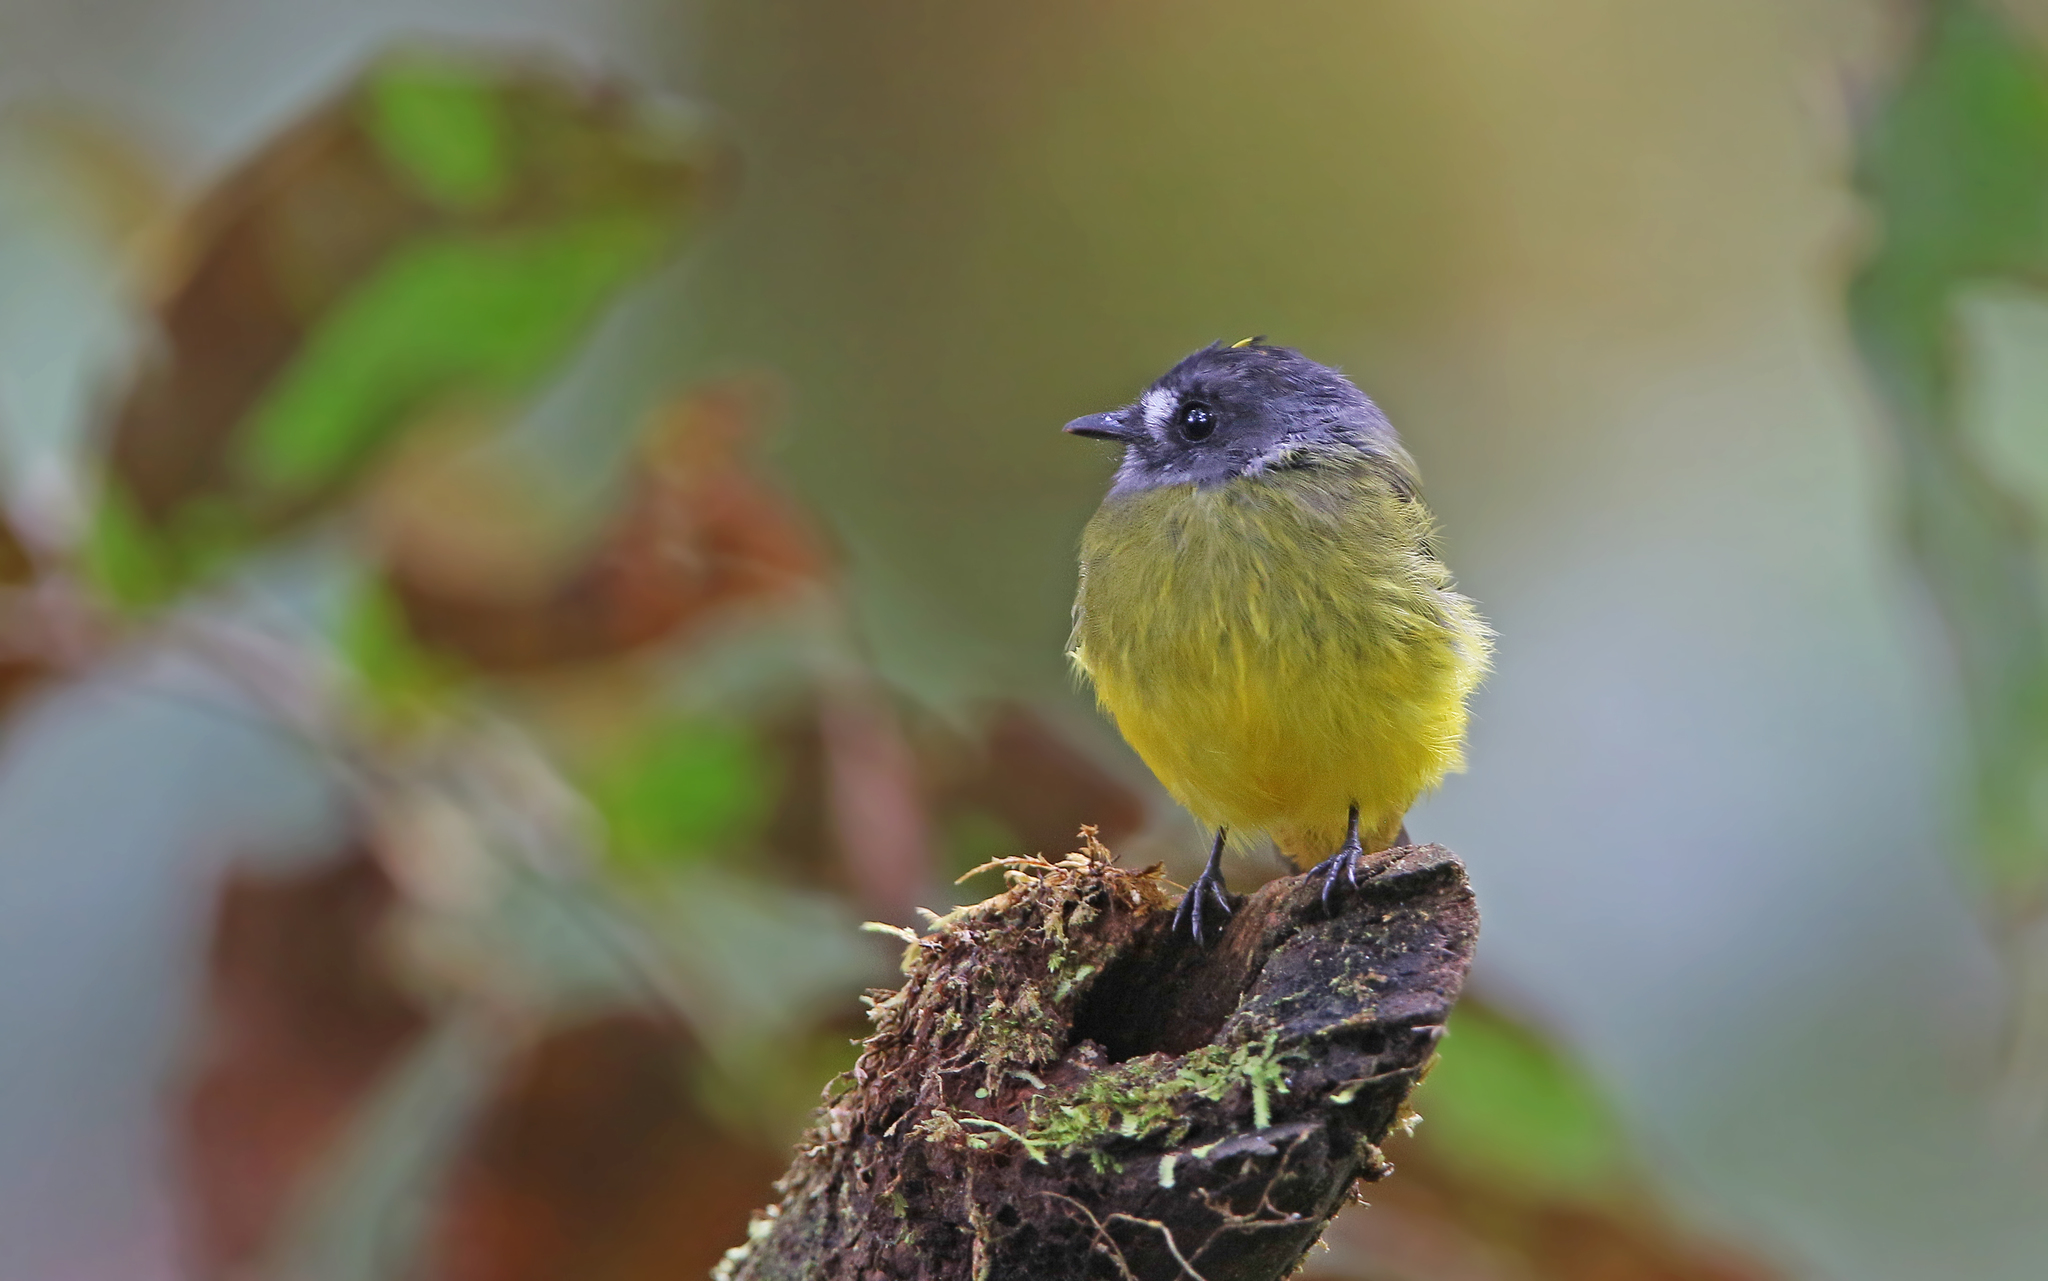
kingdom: Animalia
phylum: Chordata
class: Aves
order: Passeriformes
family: Tyrannidae
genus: Myiotriccus
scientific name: Myiotriccus ornatus
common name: Ornate flycatcher
